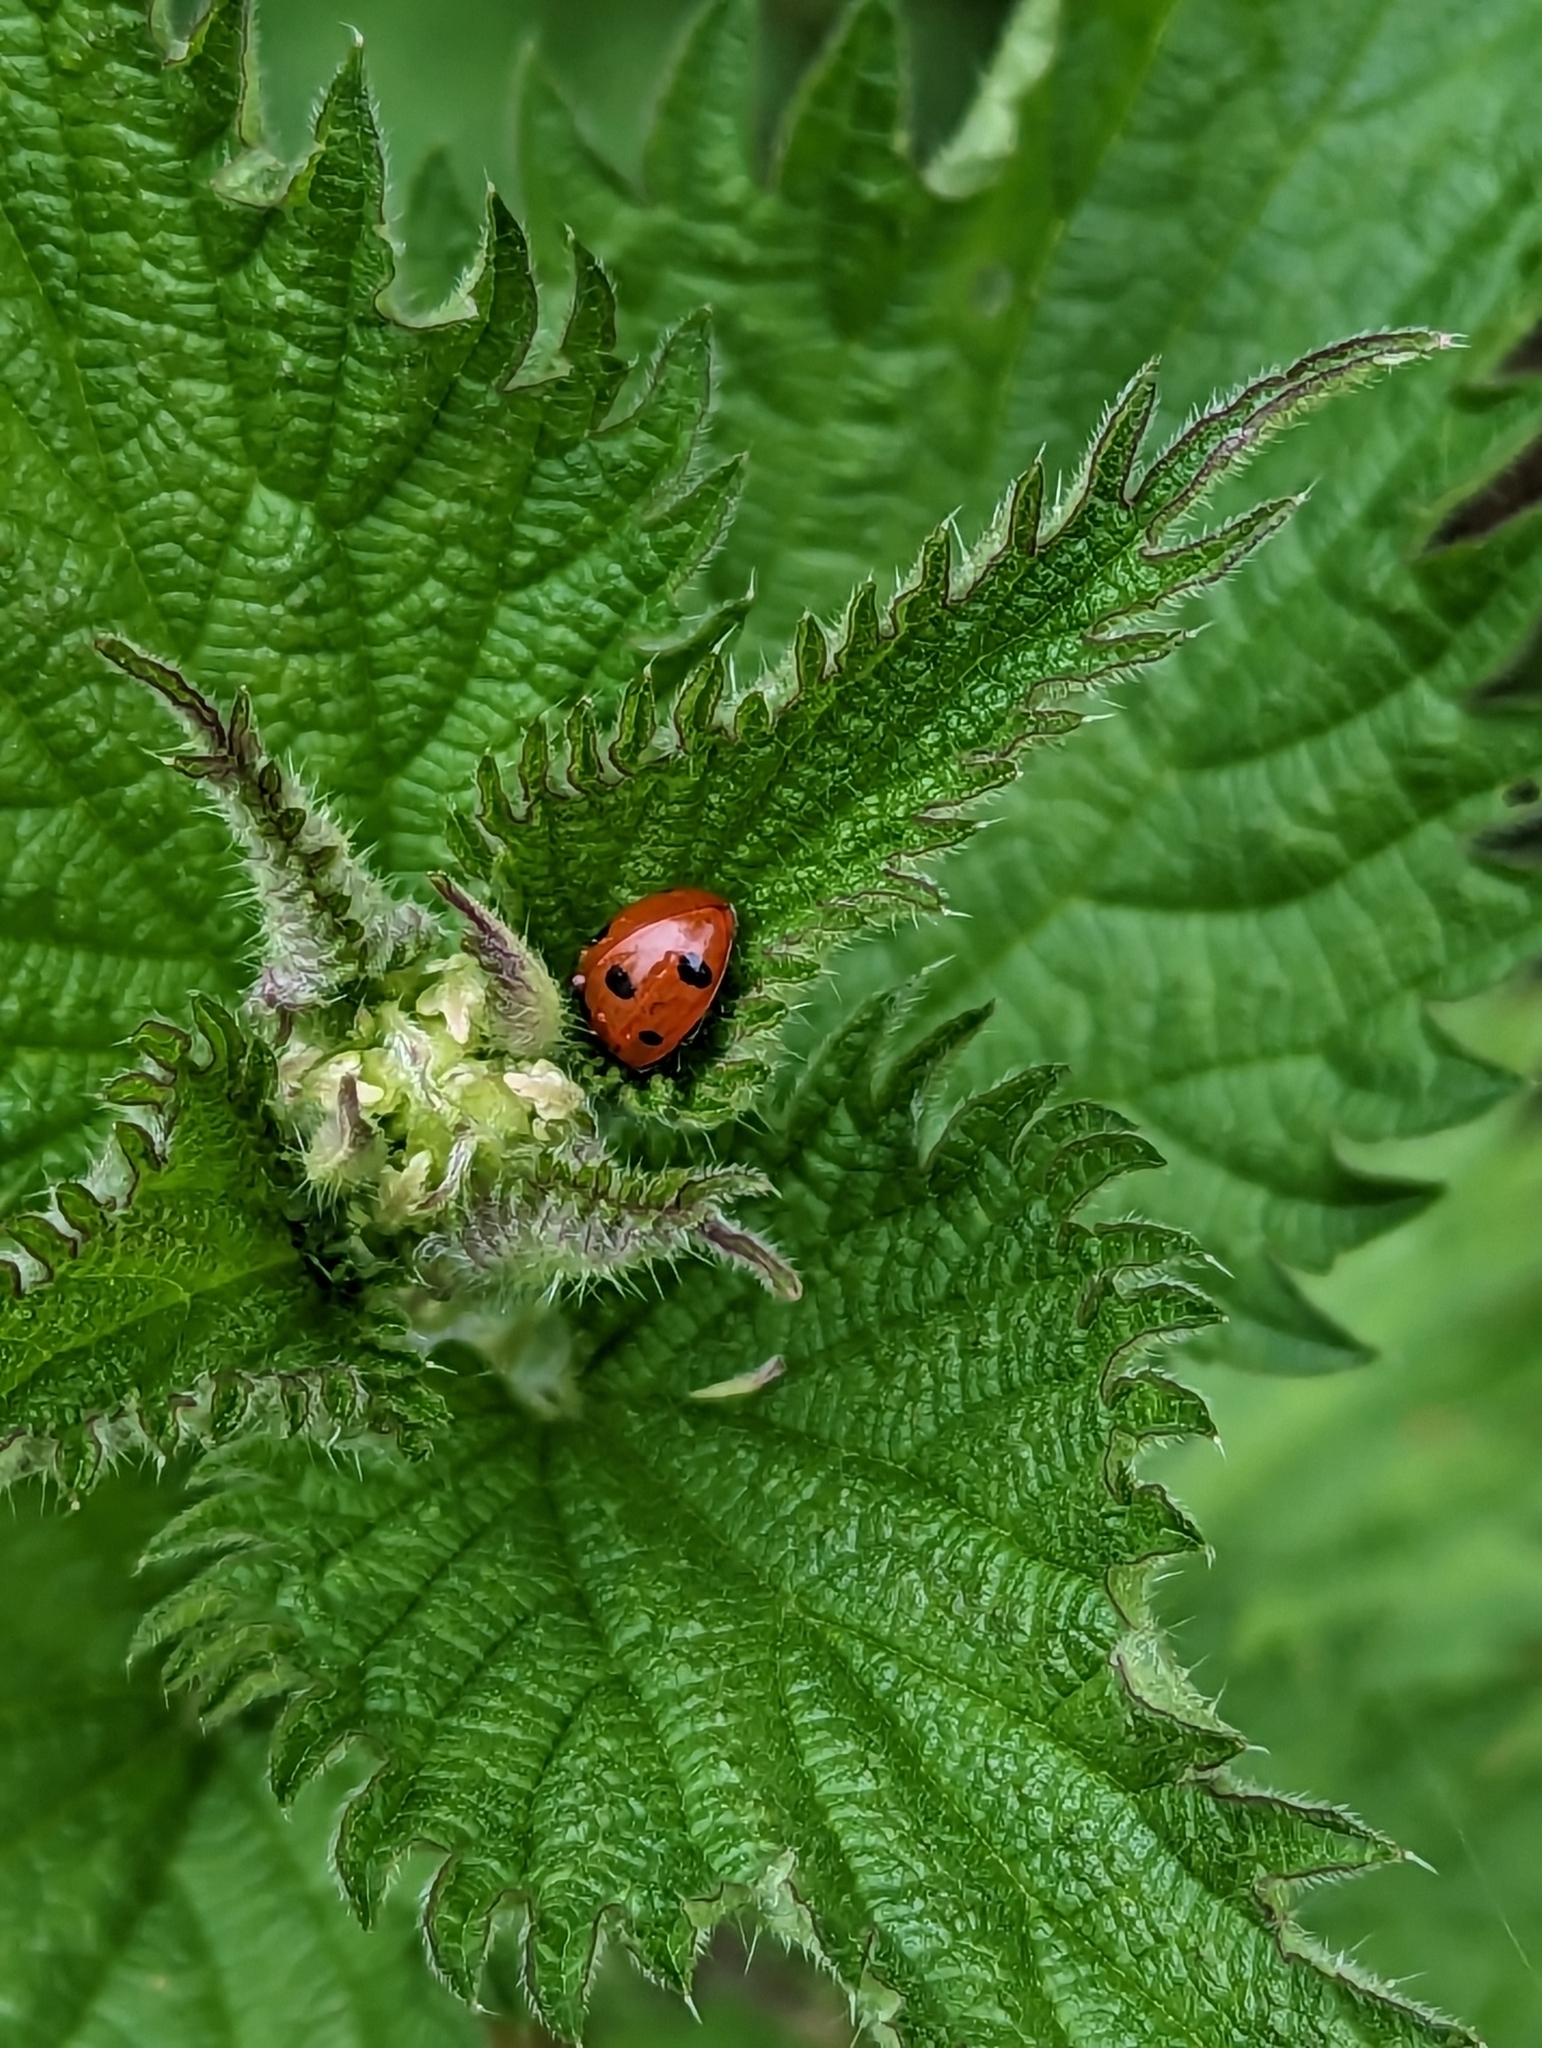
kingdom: Animalia
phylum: Arthropoda
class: Insecta
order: Coleoptera
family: Coccinellidae
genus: Coccinella
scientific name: Coccinella septempunctata
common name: Sevenspotted lady beetle
